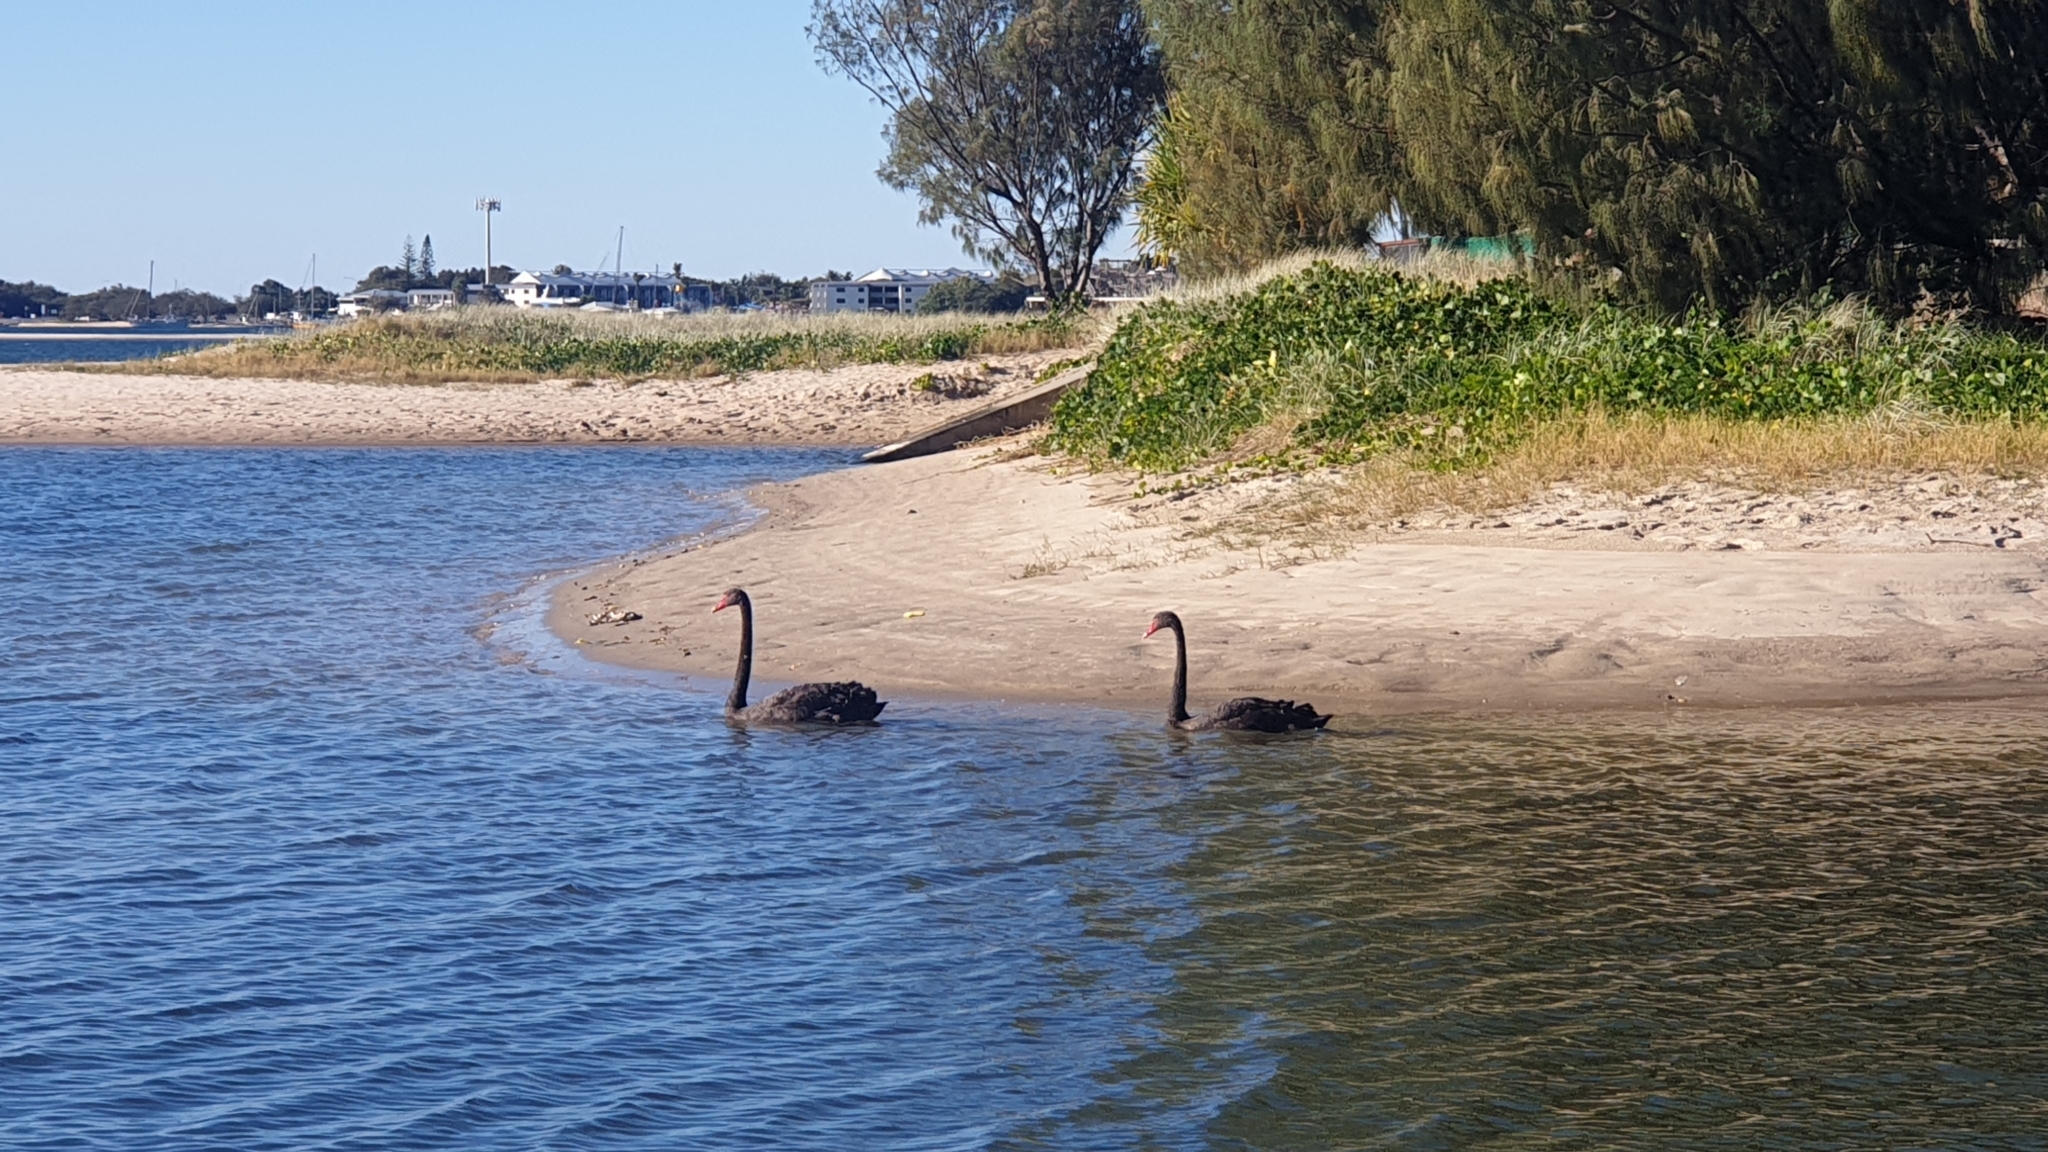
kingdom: Animalia
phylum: Chordata
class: Aves
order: Anseriformes
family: Anatidae
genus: Cygnus
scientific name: Cygnus atratus
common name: Black swan
